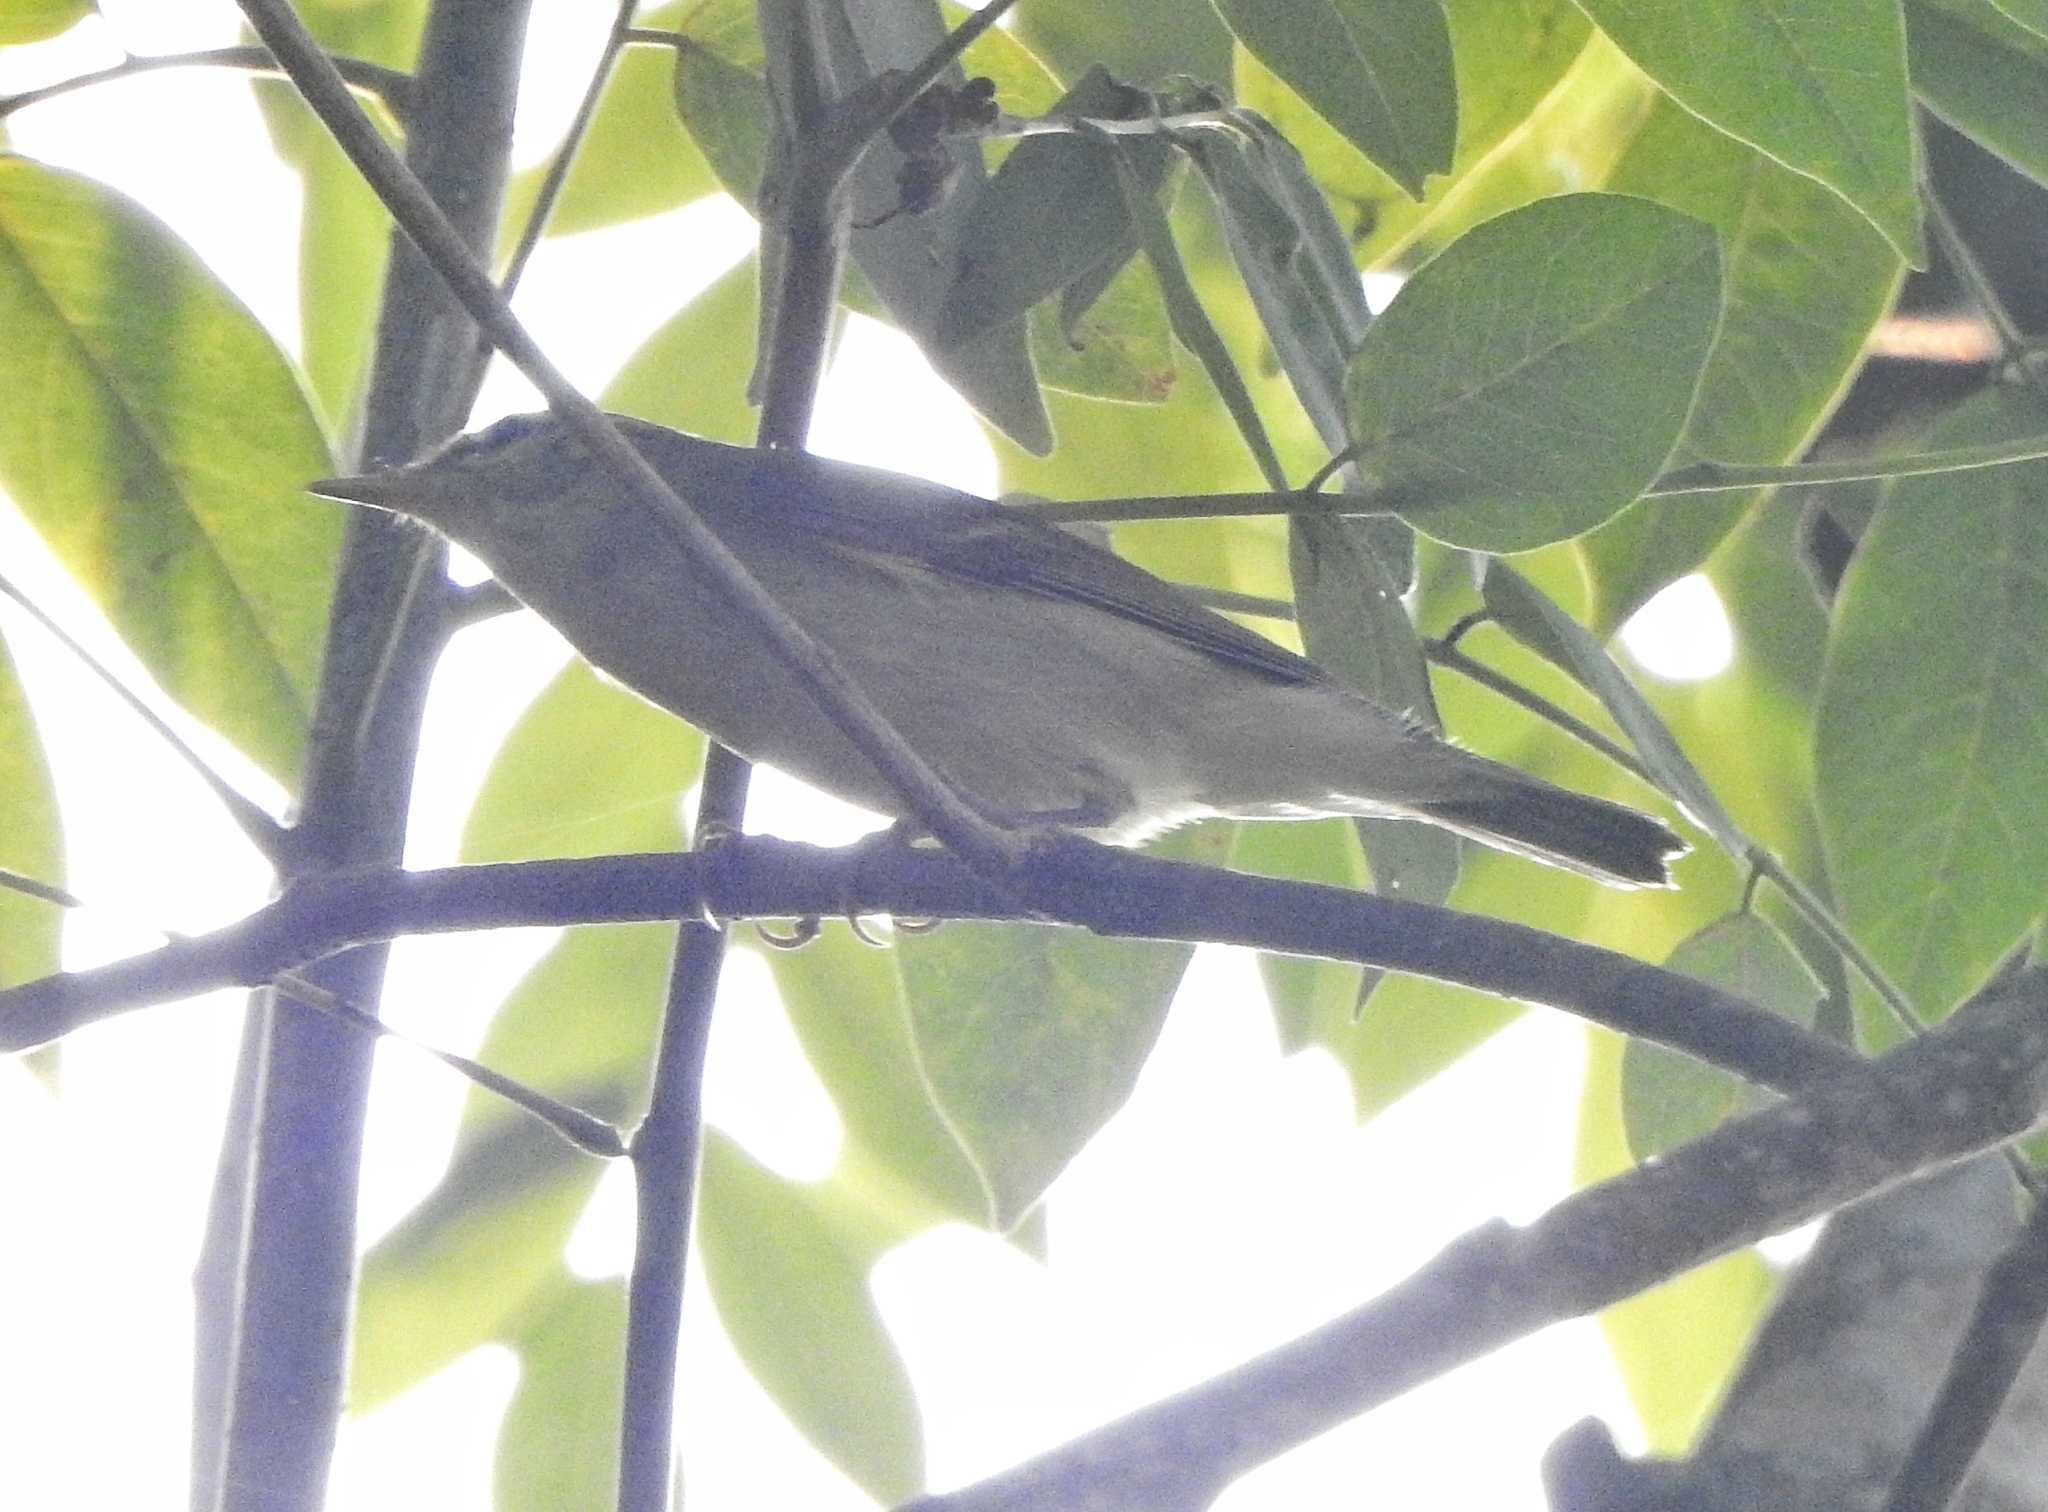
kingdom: Animalia
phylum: Chordata
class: Aves
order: Passeriformes
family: Phylloscopidae
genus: Phylloscopus
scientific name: Phylloscopus trochiloides
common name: Greenish warbler
